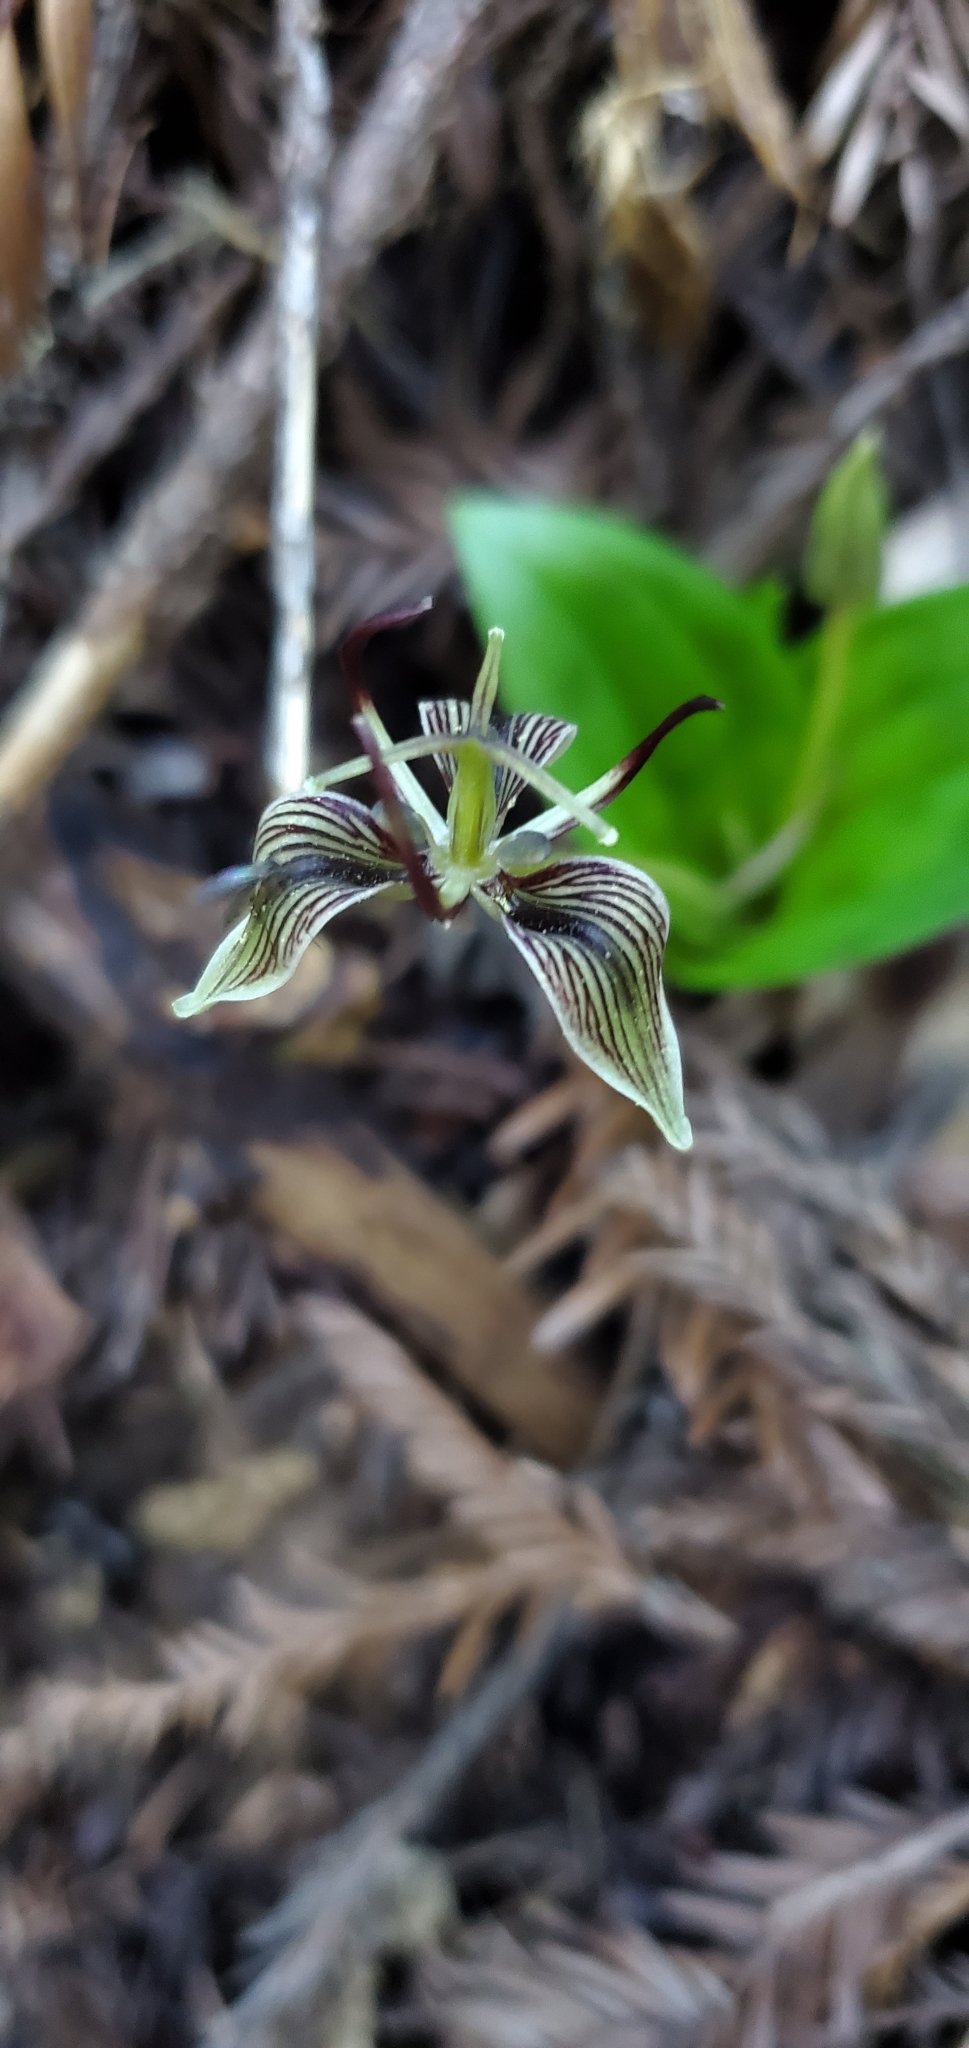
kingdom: Plantae
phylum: Tracheophyta
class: Liliopsida
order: Liliales
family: Liliaceae
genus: Scoliopus
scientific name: Scoliopus bigelovii
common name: Foetid adder's-tongue
